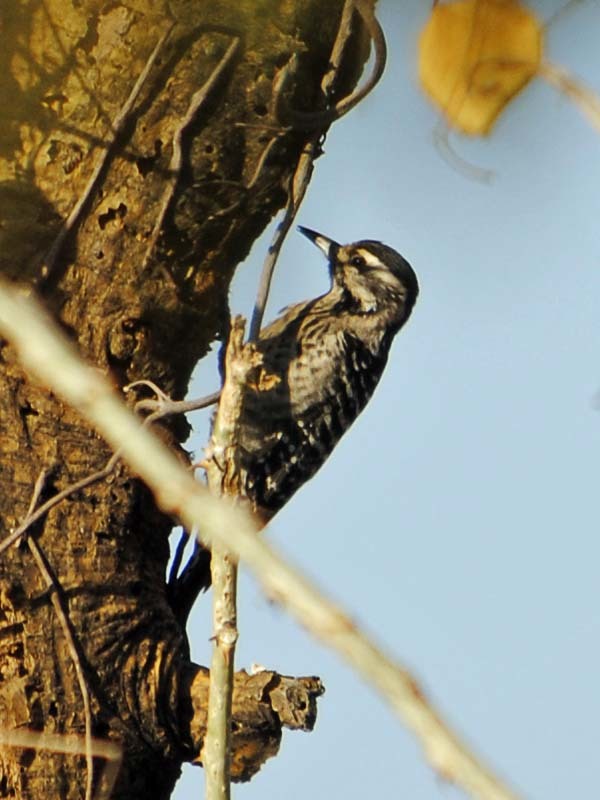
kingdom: Animalia
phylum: Chordata
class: Aves
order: Piciformes
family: Picidae
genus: Dryobates
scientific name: Dryobates scalaris
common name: Ladder-backed woodpecker
